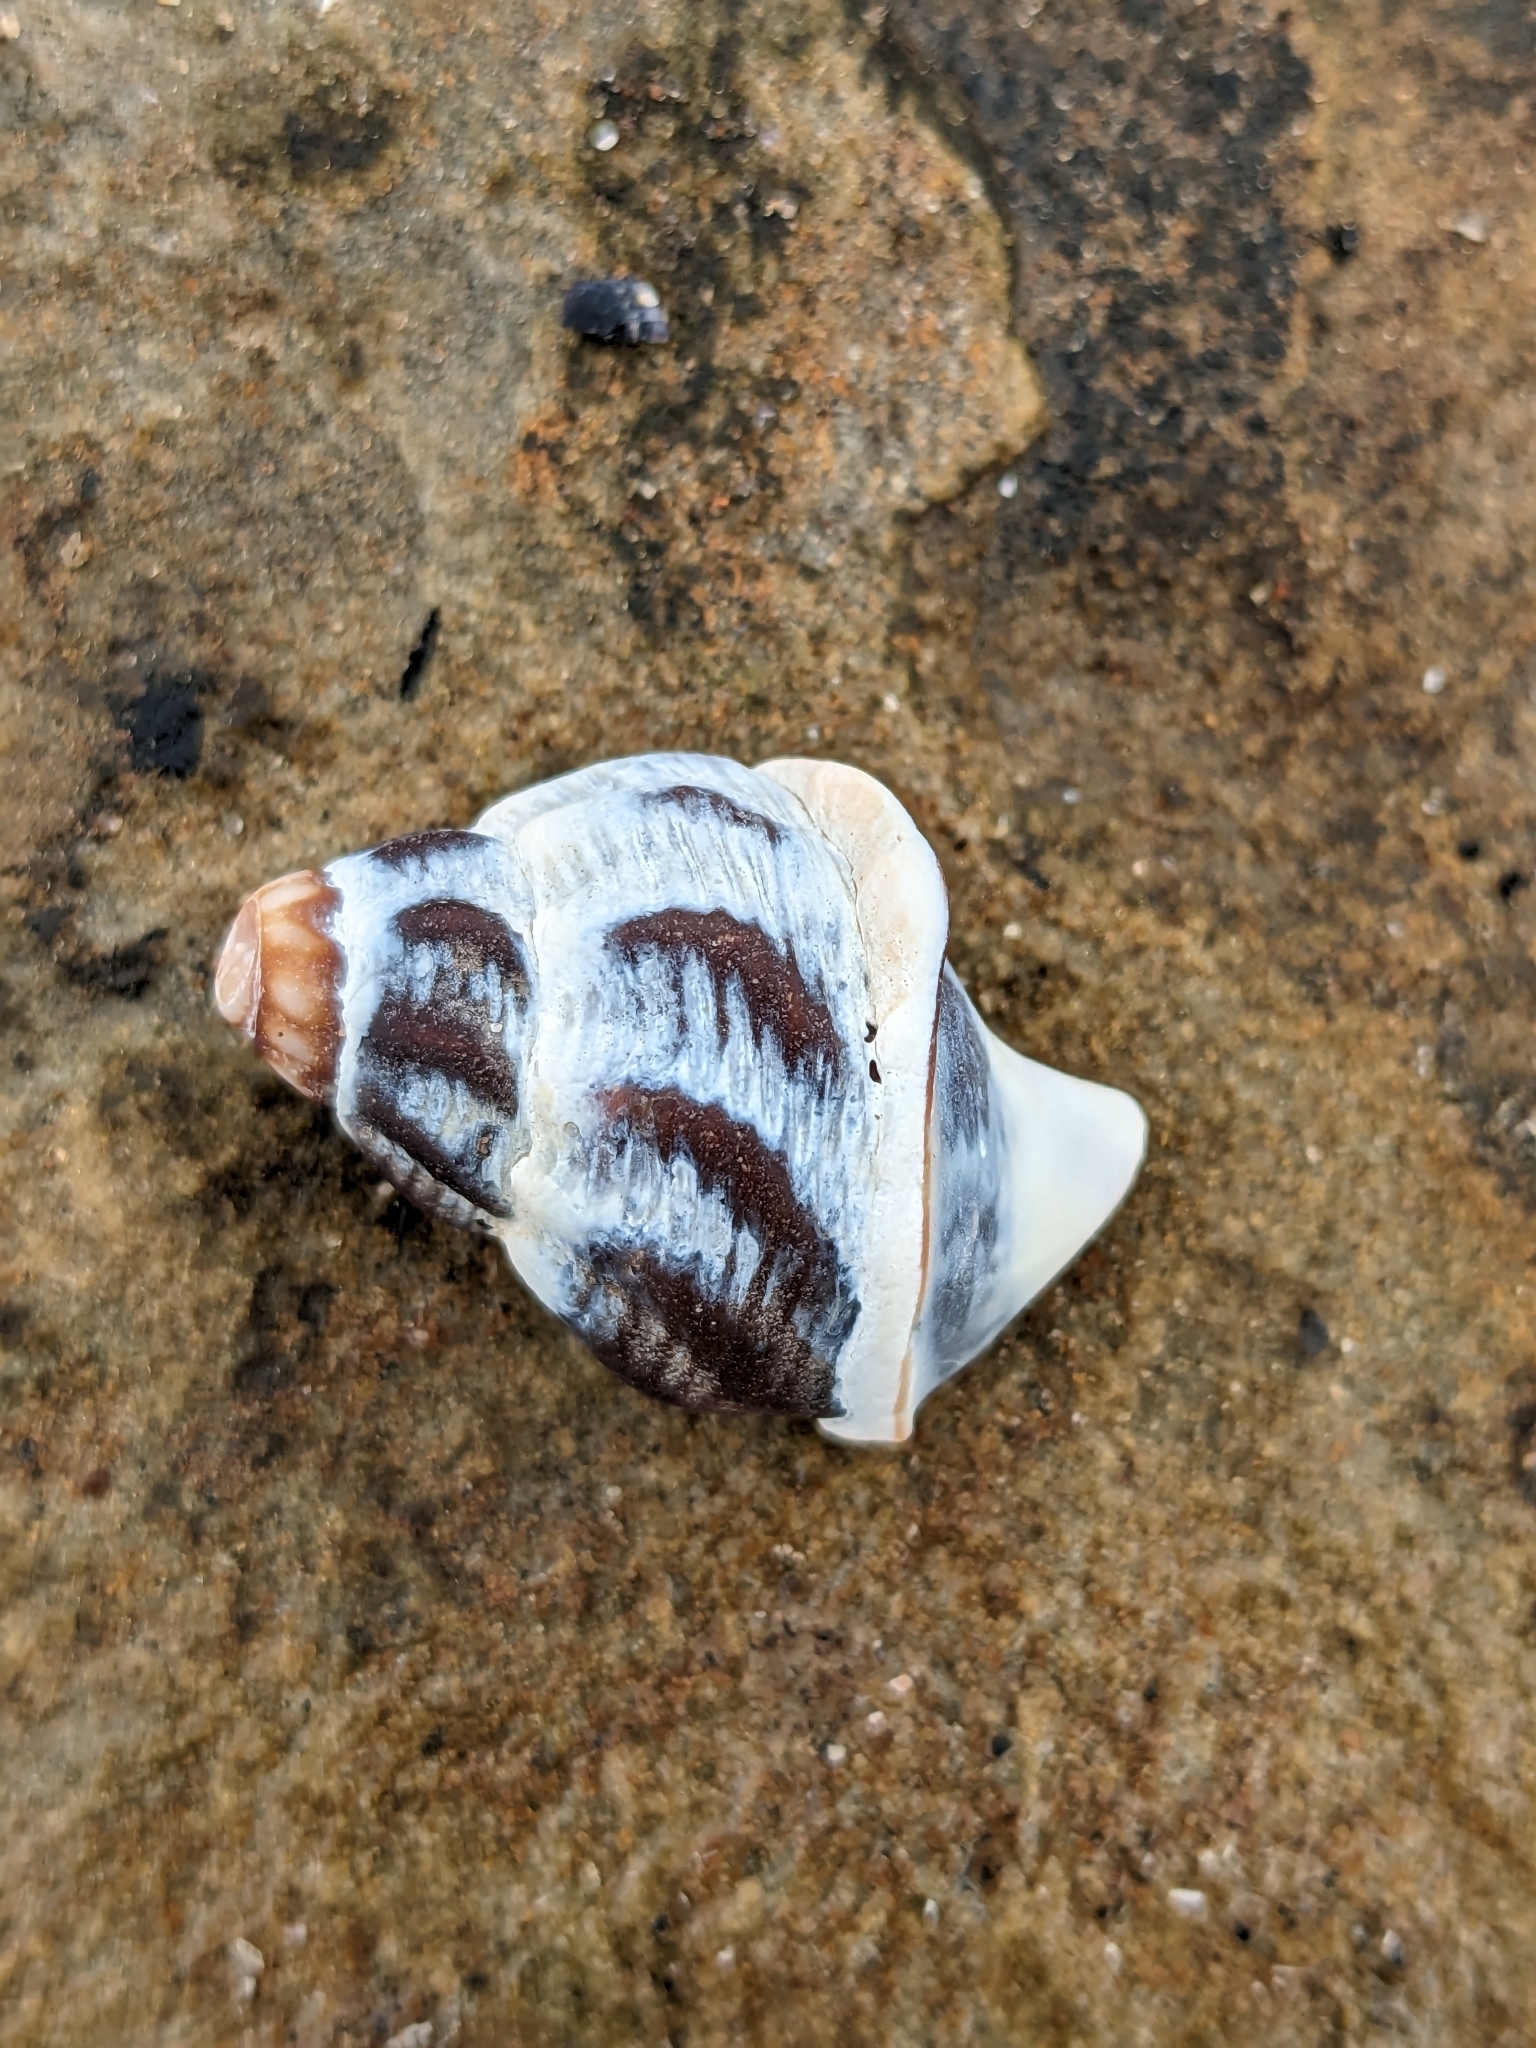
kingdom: Animalia
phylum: Mollusca
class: Gastropoda
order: Neogastropoda
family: Buccinidae
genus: Buccinum
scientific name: Buccinum undatum
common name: Common whelk
